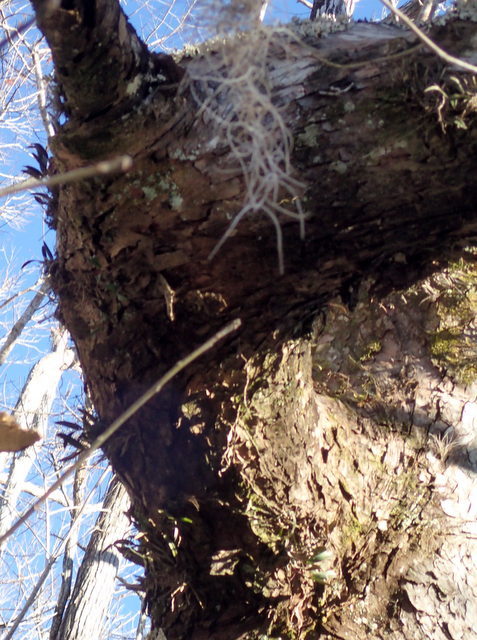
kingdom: Plantae
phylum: Tracheophyta
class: Liliopsida
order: Asparagales
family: Orchidaceae
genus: Epidendrum
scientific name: Epidendrum conopseum
